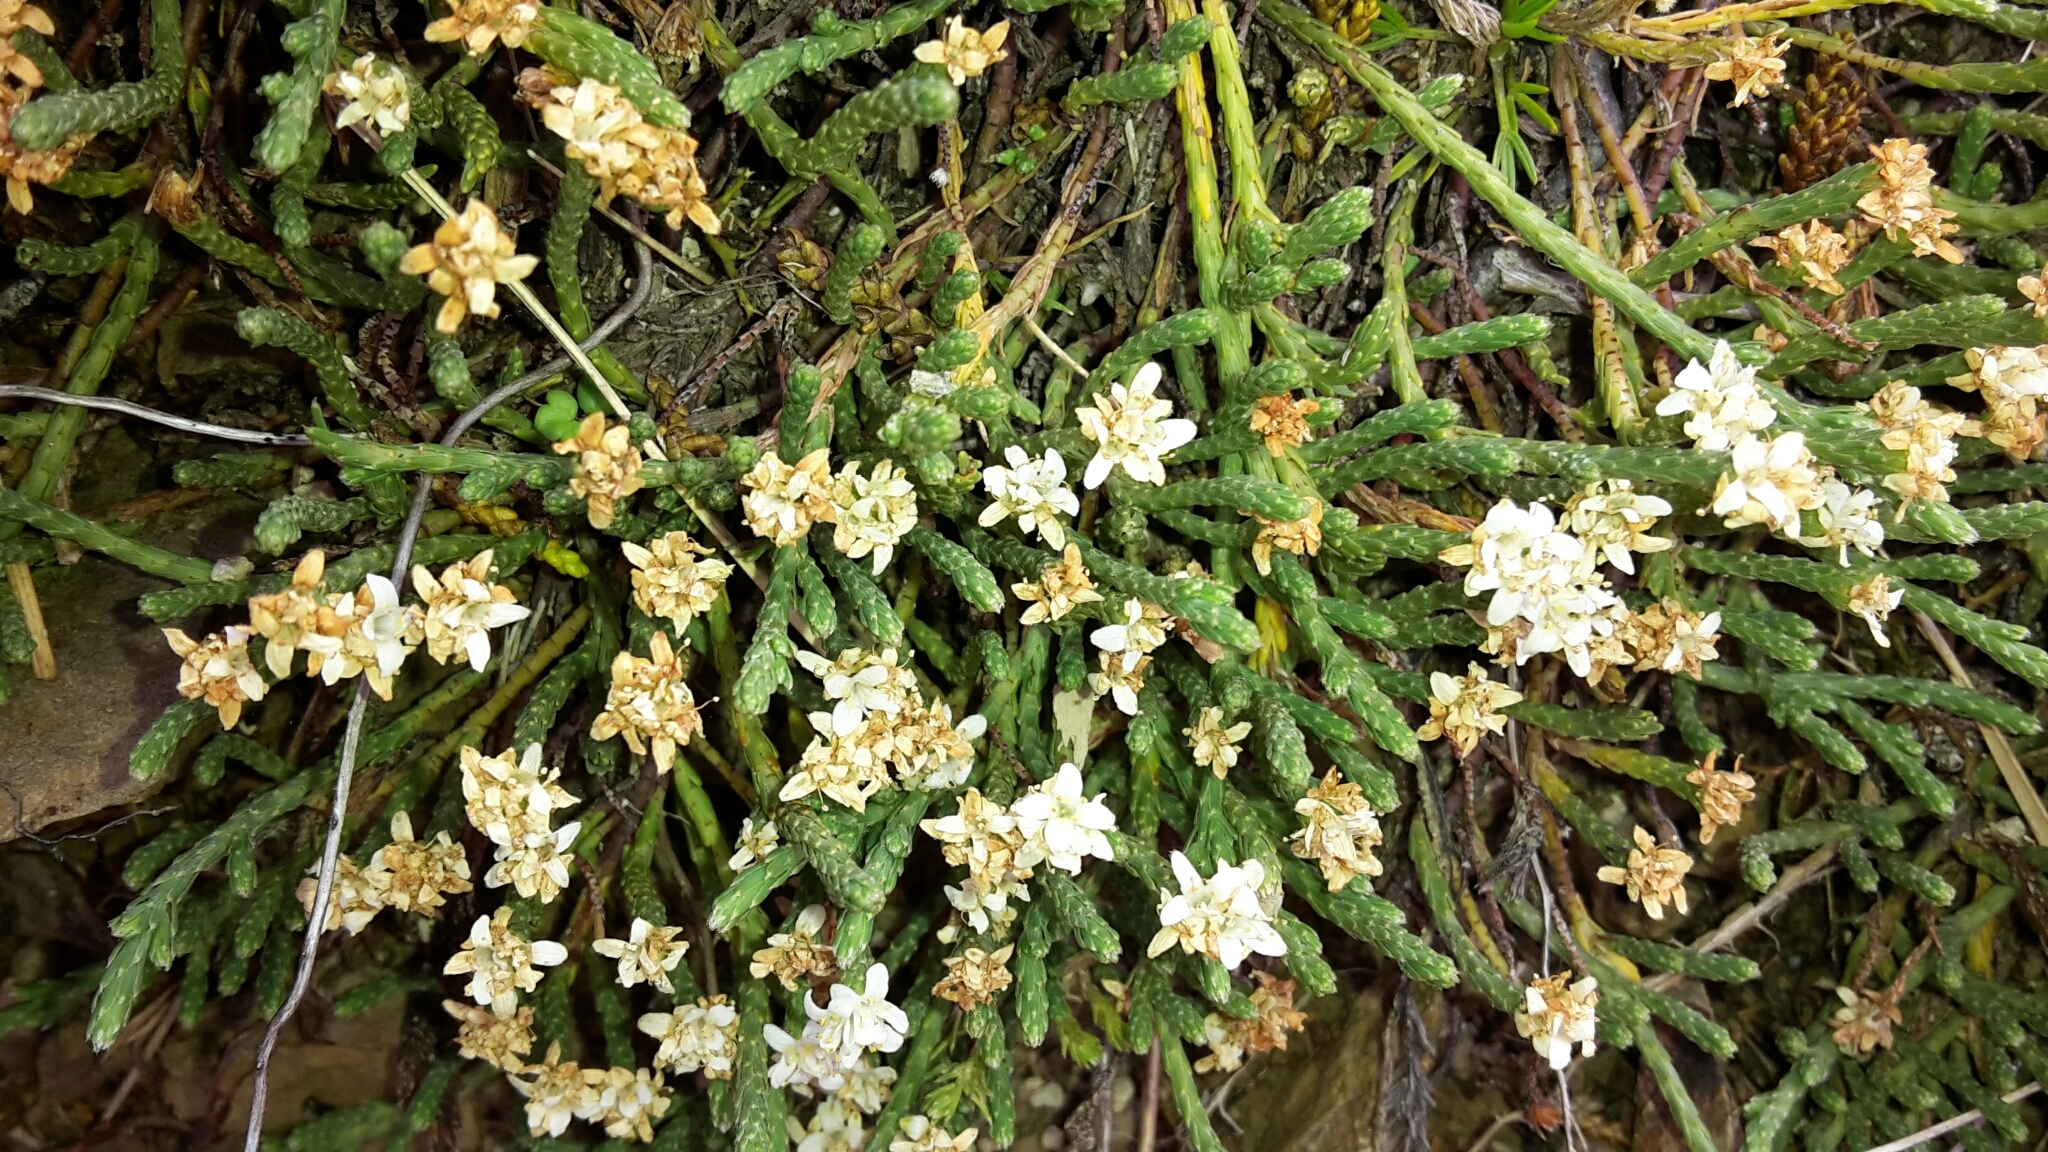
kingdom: Plantae
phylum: Tracheophyta
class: Magnoliopsida
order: Malvales
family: Thymelaeaceae
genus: Kelleria
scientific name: Kelleria dieffenbachii
